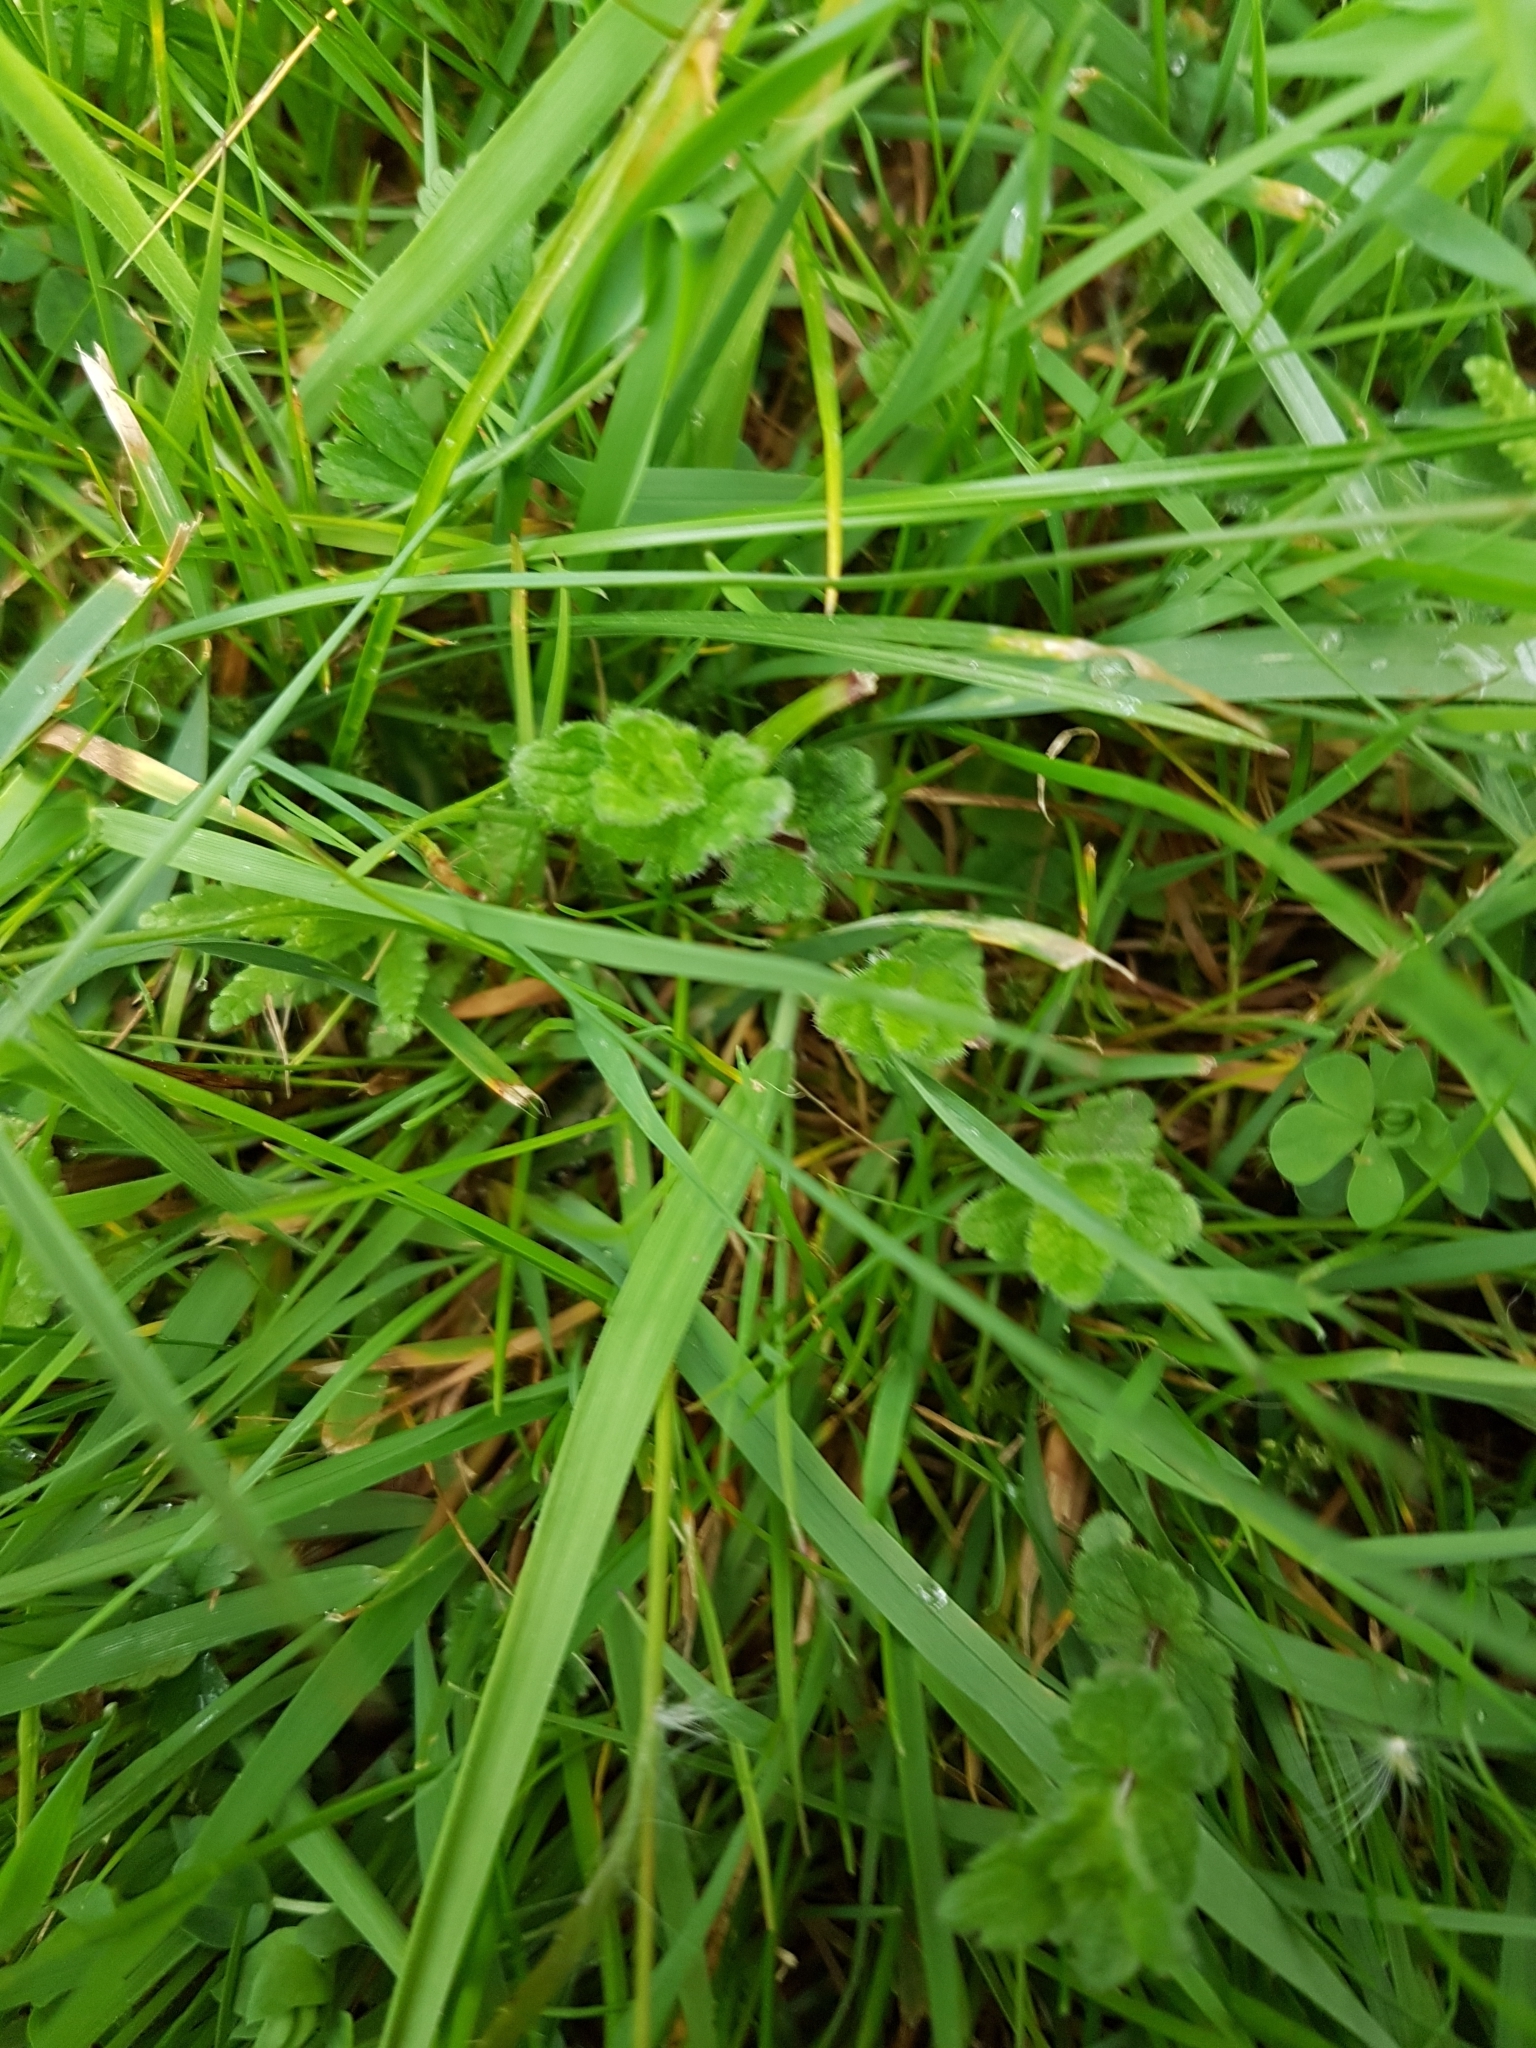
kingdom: Plantae
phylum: Tracheophyta
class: Magnoliopsida
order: Lamiales
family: Plantaginaceae
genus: Veronica
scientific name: Veronica chamaedrys
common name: Germander speedwell
